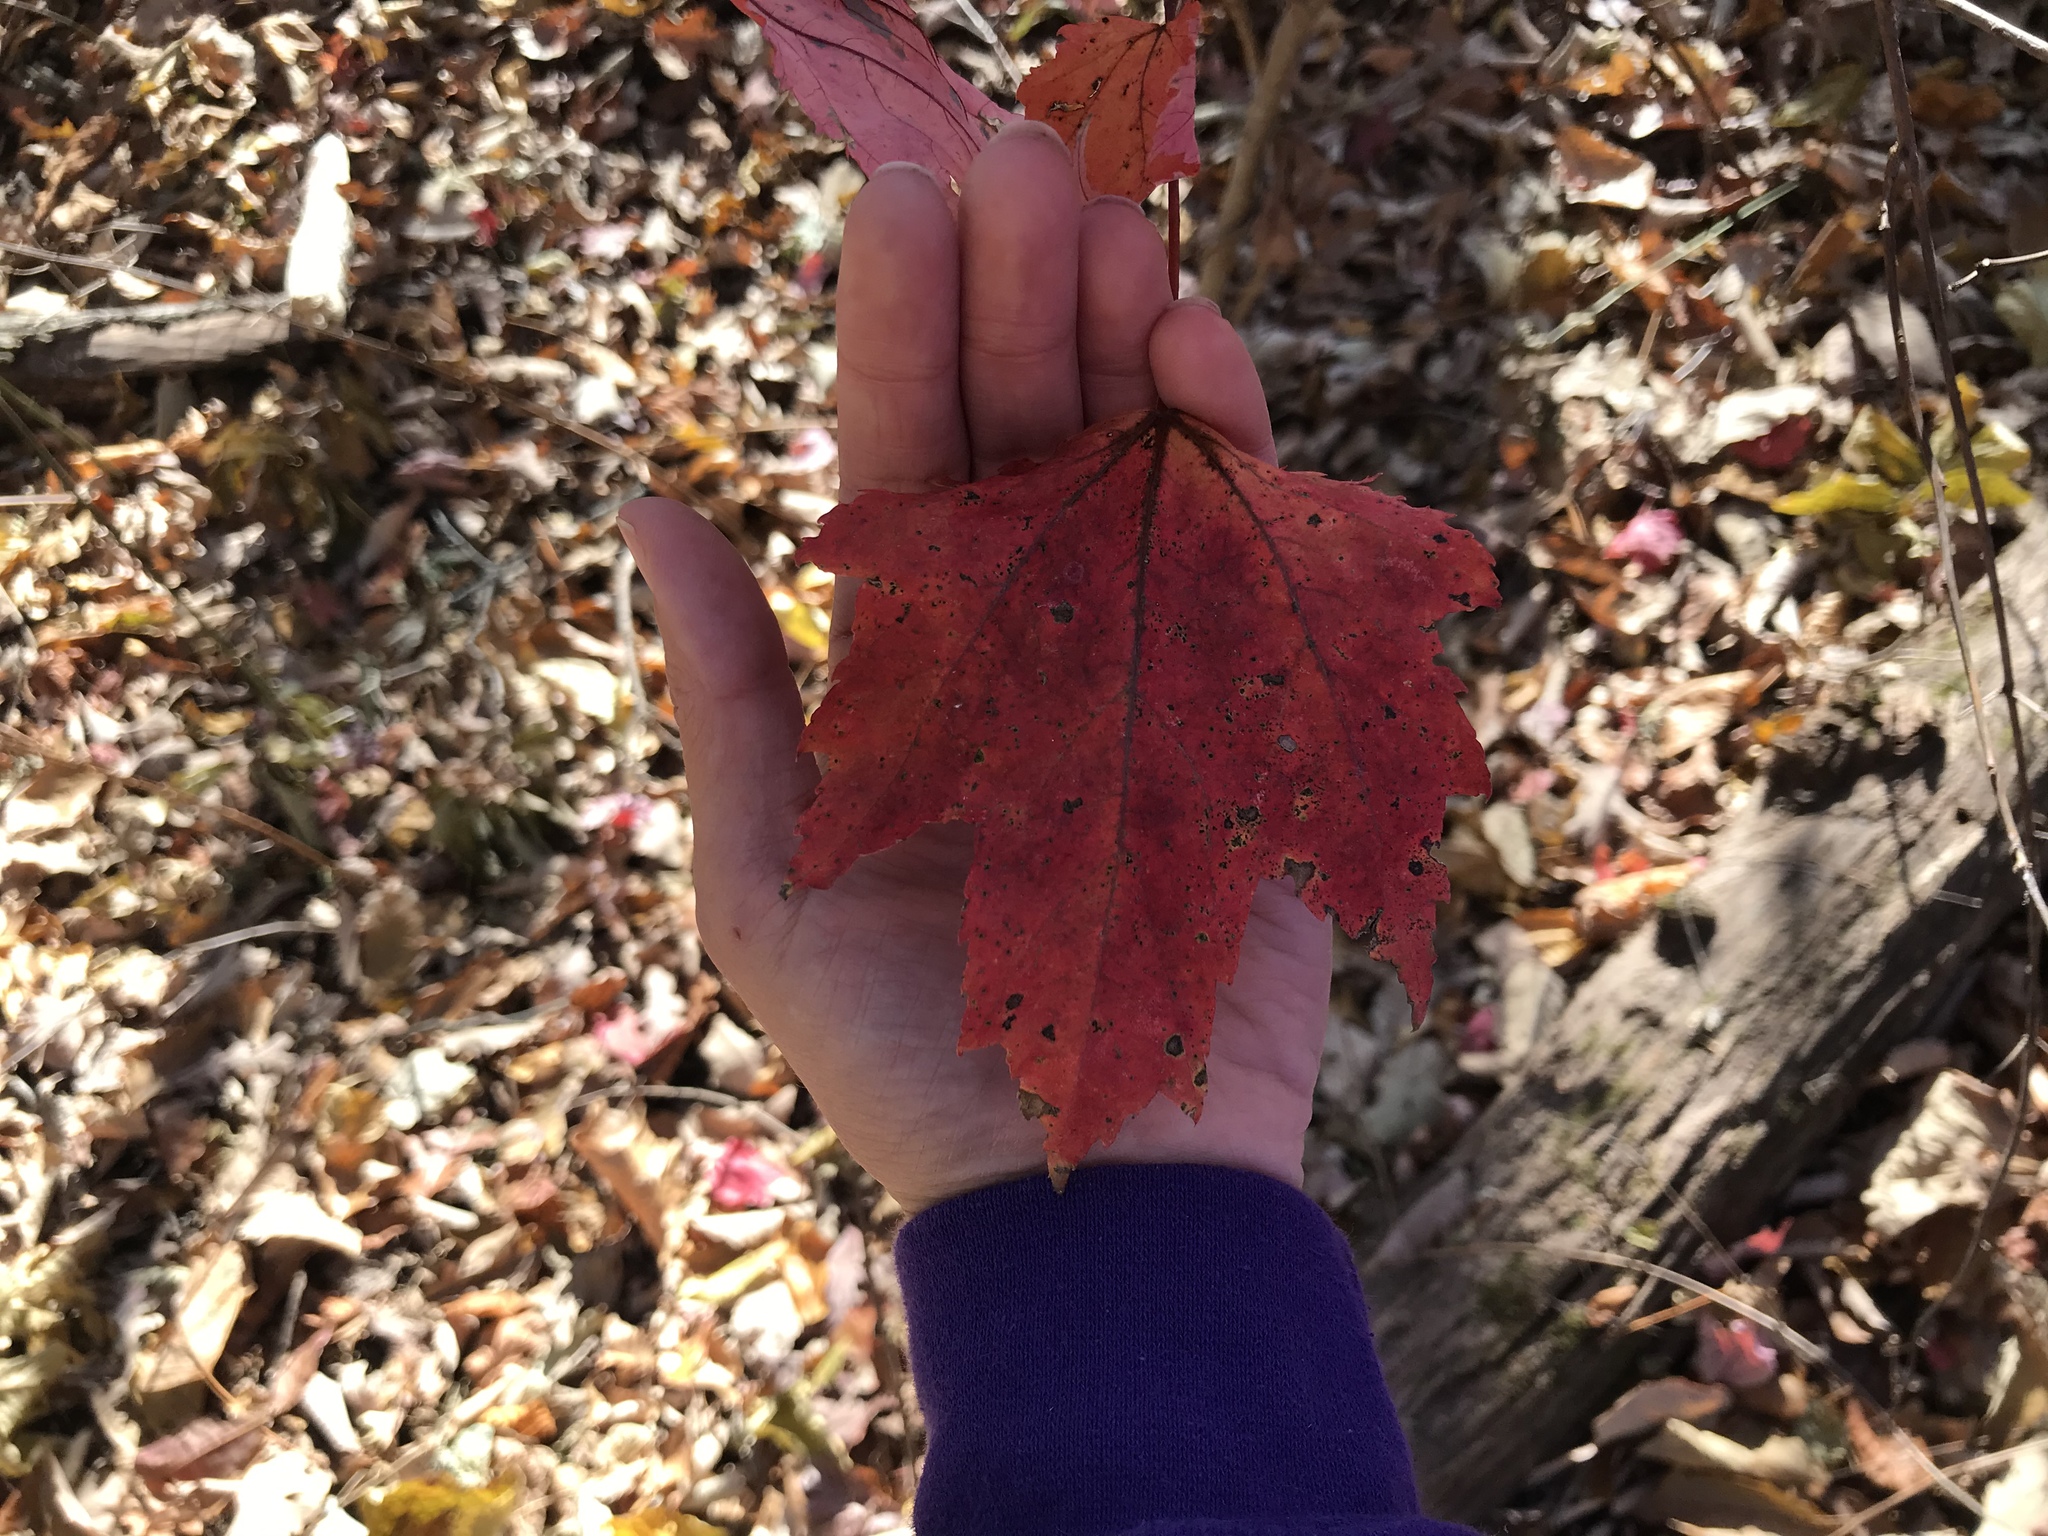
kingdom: Plantae
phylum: Tracheophyta
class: Magnoliopsida
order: Sapindales
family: Sapindaceae
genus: Acer
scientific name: Acer rubrum
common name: Red maple
